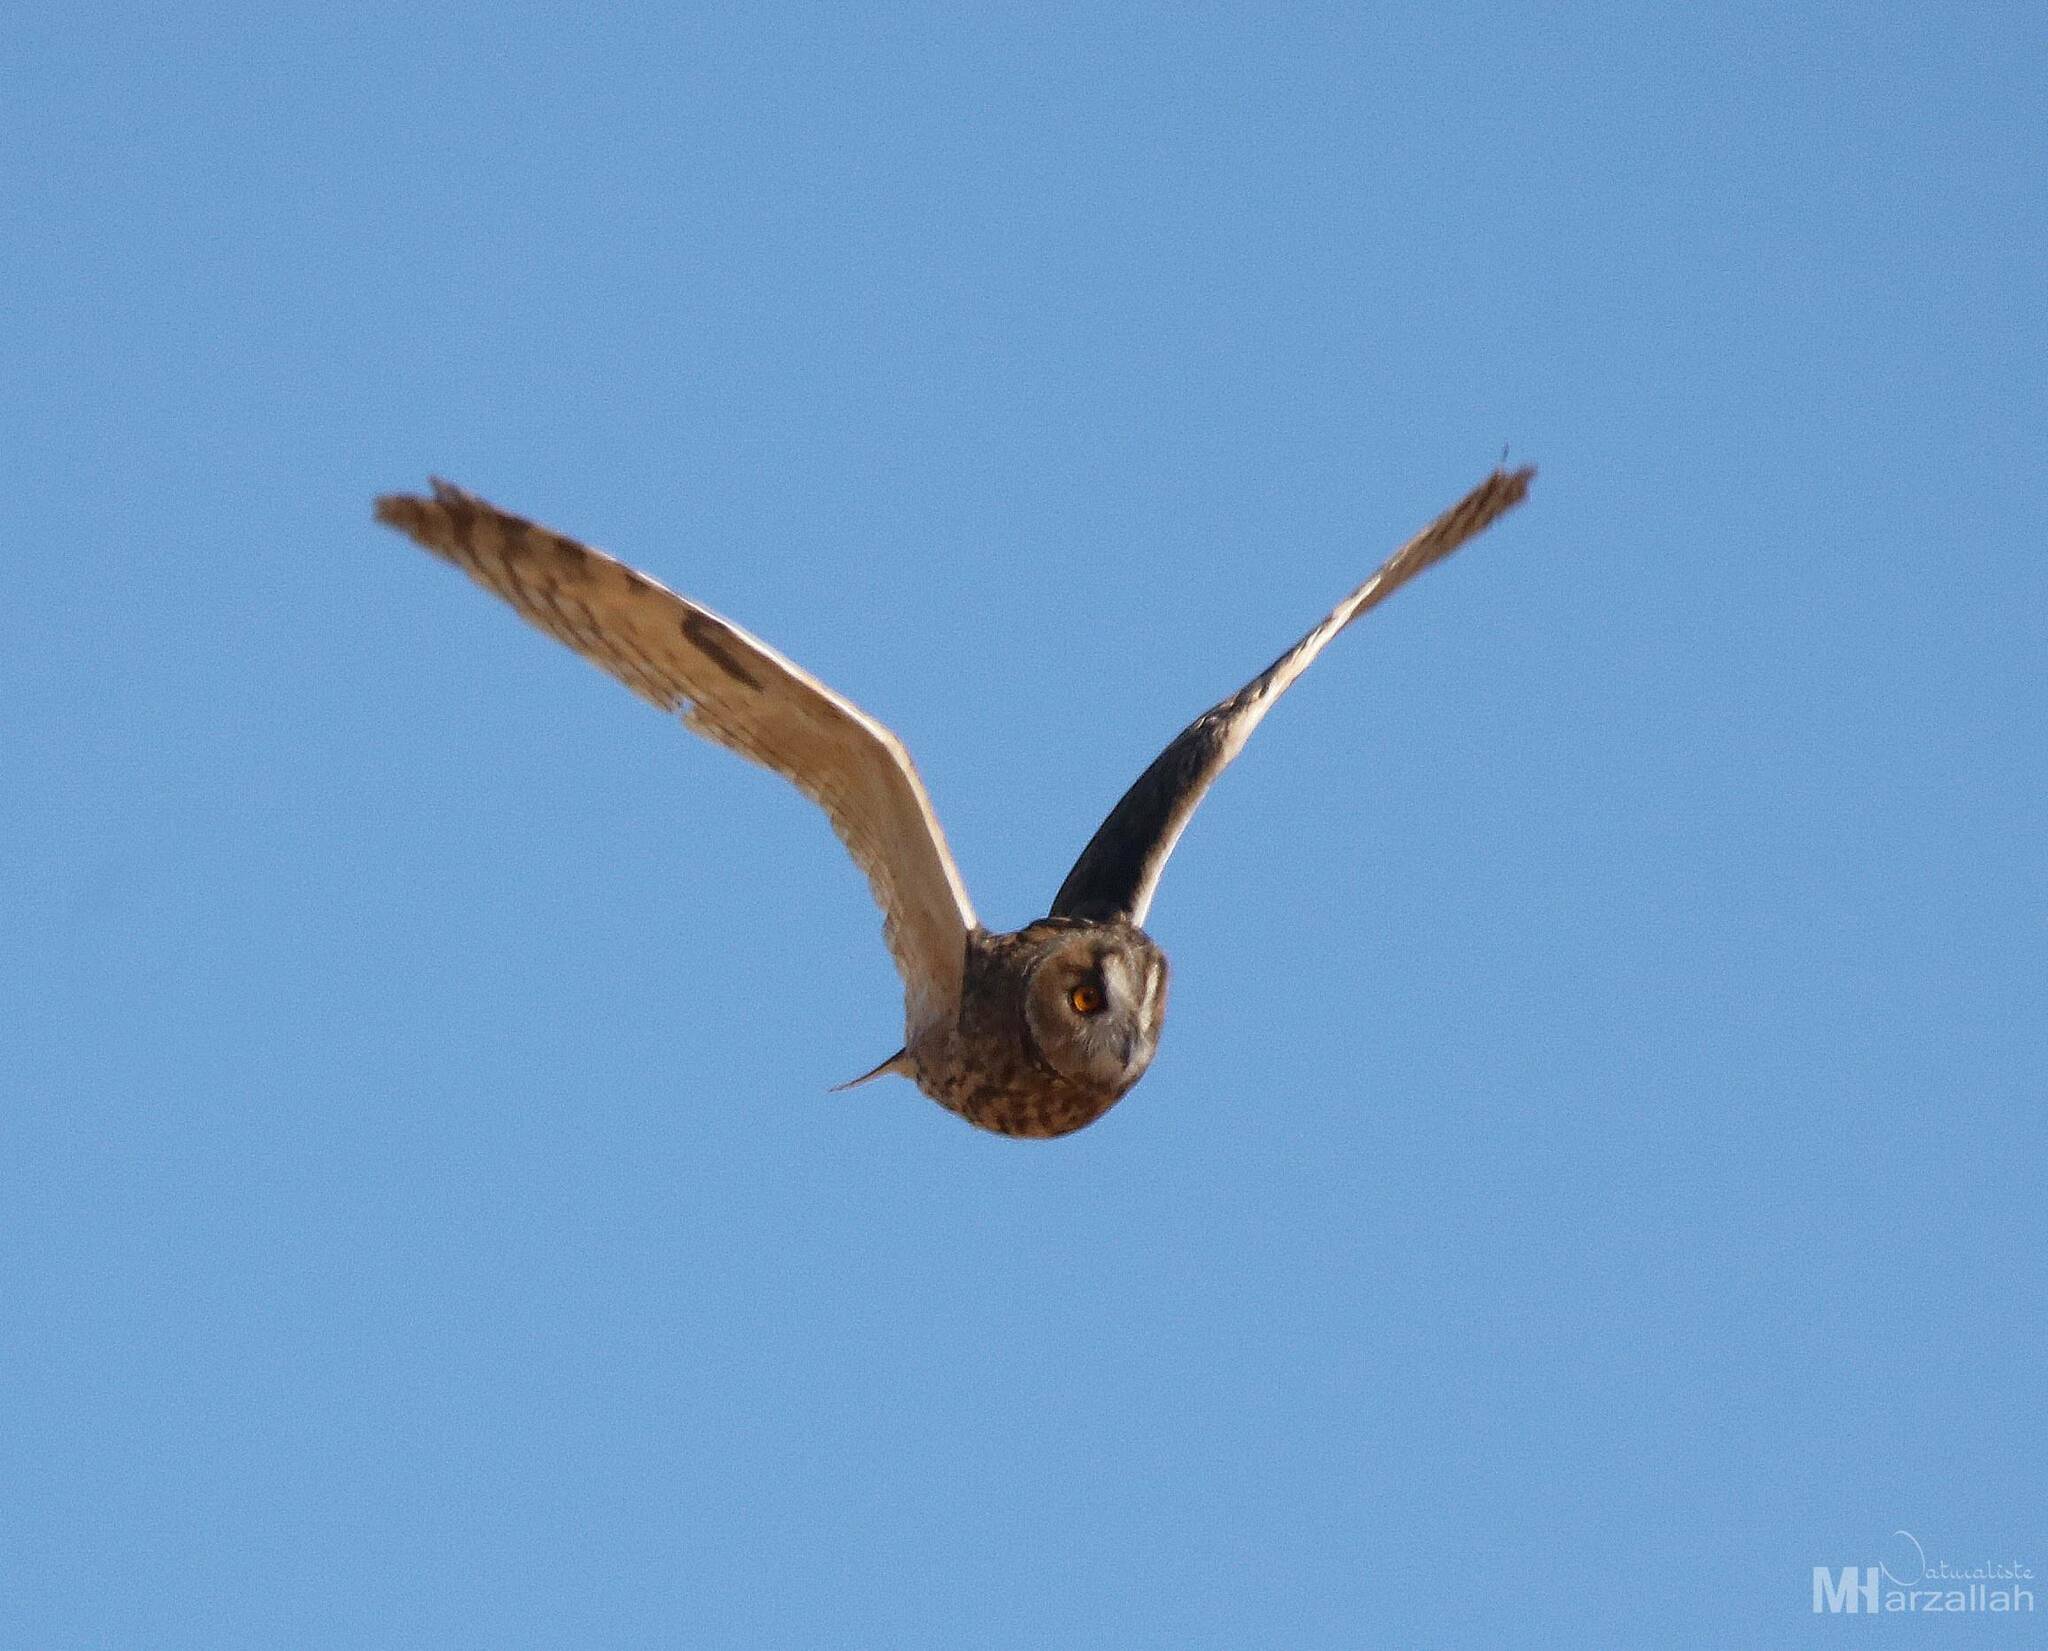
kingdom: Animalia
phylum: Chordata
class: Aves
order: Strigiformes
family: Strigidae
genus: Asio
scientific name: Asio otus
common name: Long-eared owl
